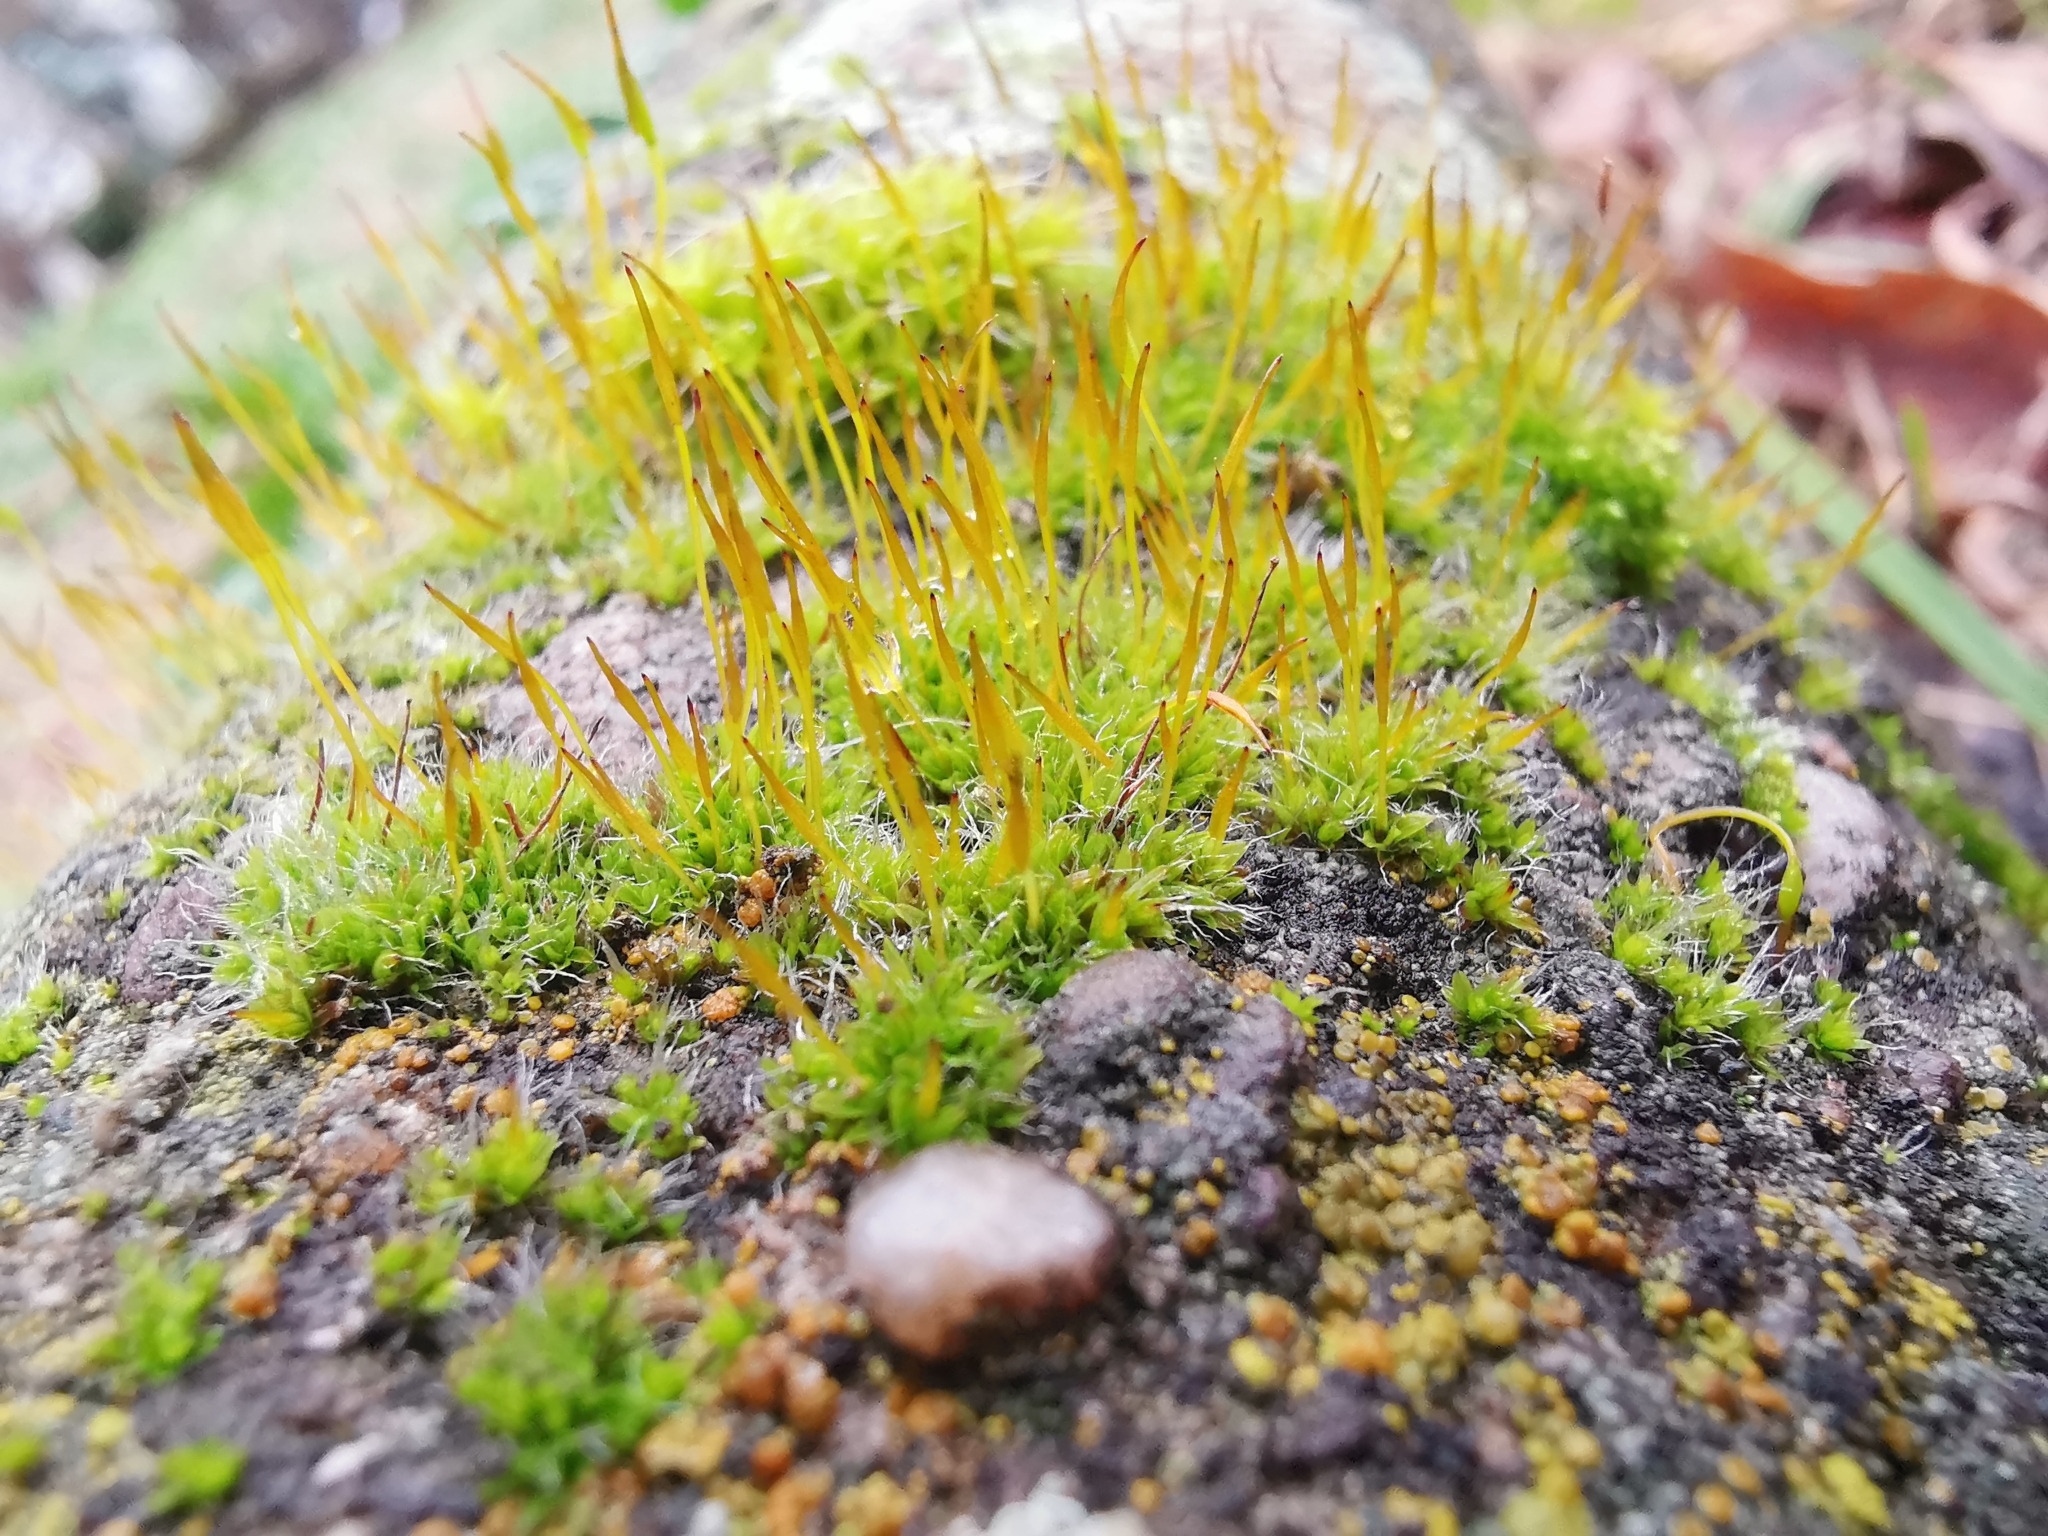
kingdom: Plantae
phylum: Bryophyta
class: Bryopsida
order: Pottiales
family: Pottiaceae
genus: Tortula
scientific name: Tortula muralis
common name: Wall screw-moss
